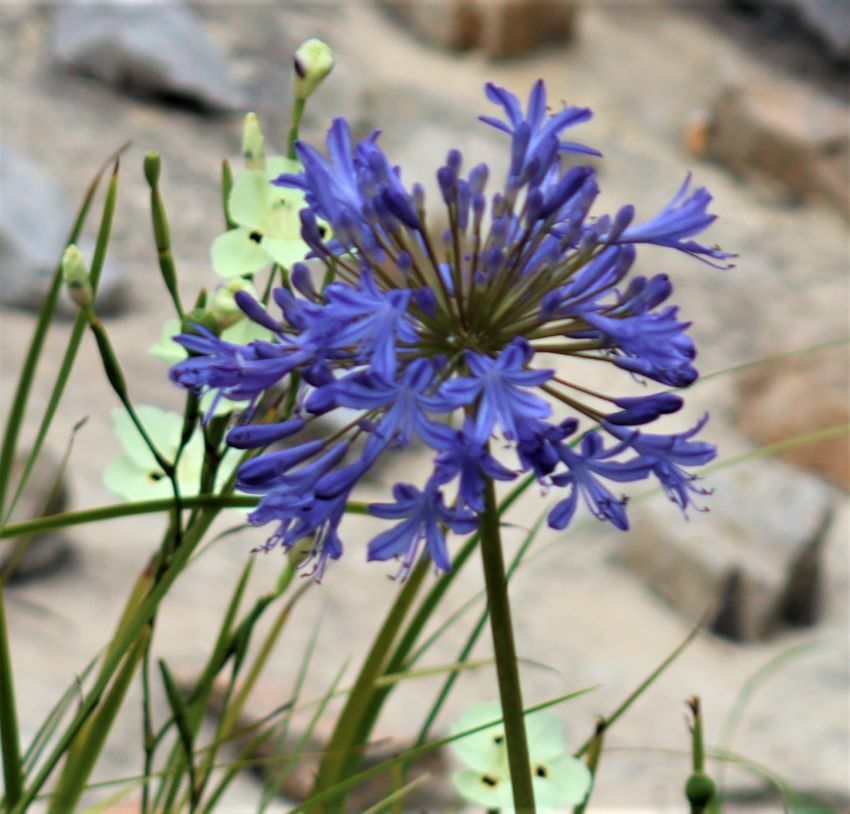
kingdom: Plantae
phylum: Tracheophyta
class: Liliopsida
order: Asparagales
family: Amaryllidaceae
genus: Agapanthus
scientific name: Agapanthus praecox
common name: African-lily
